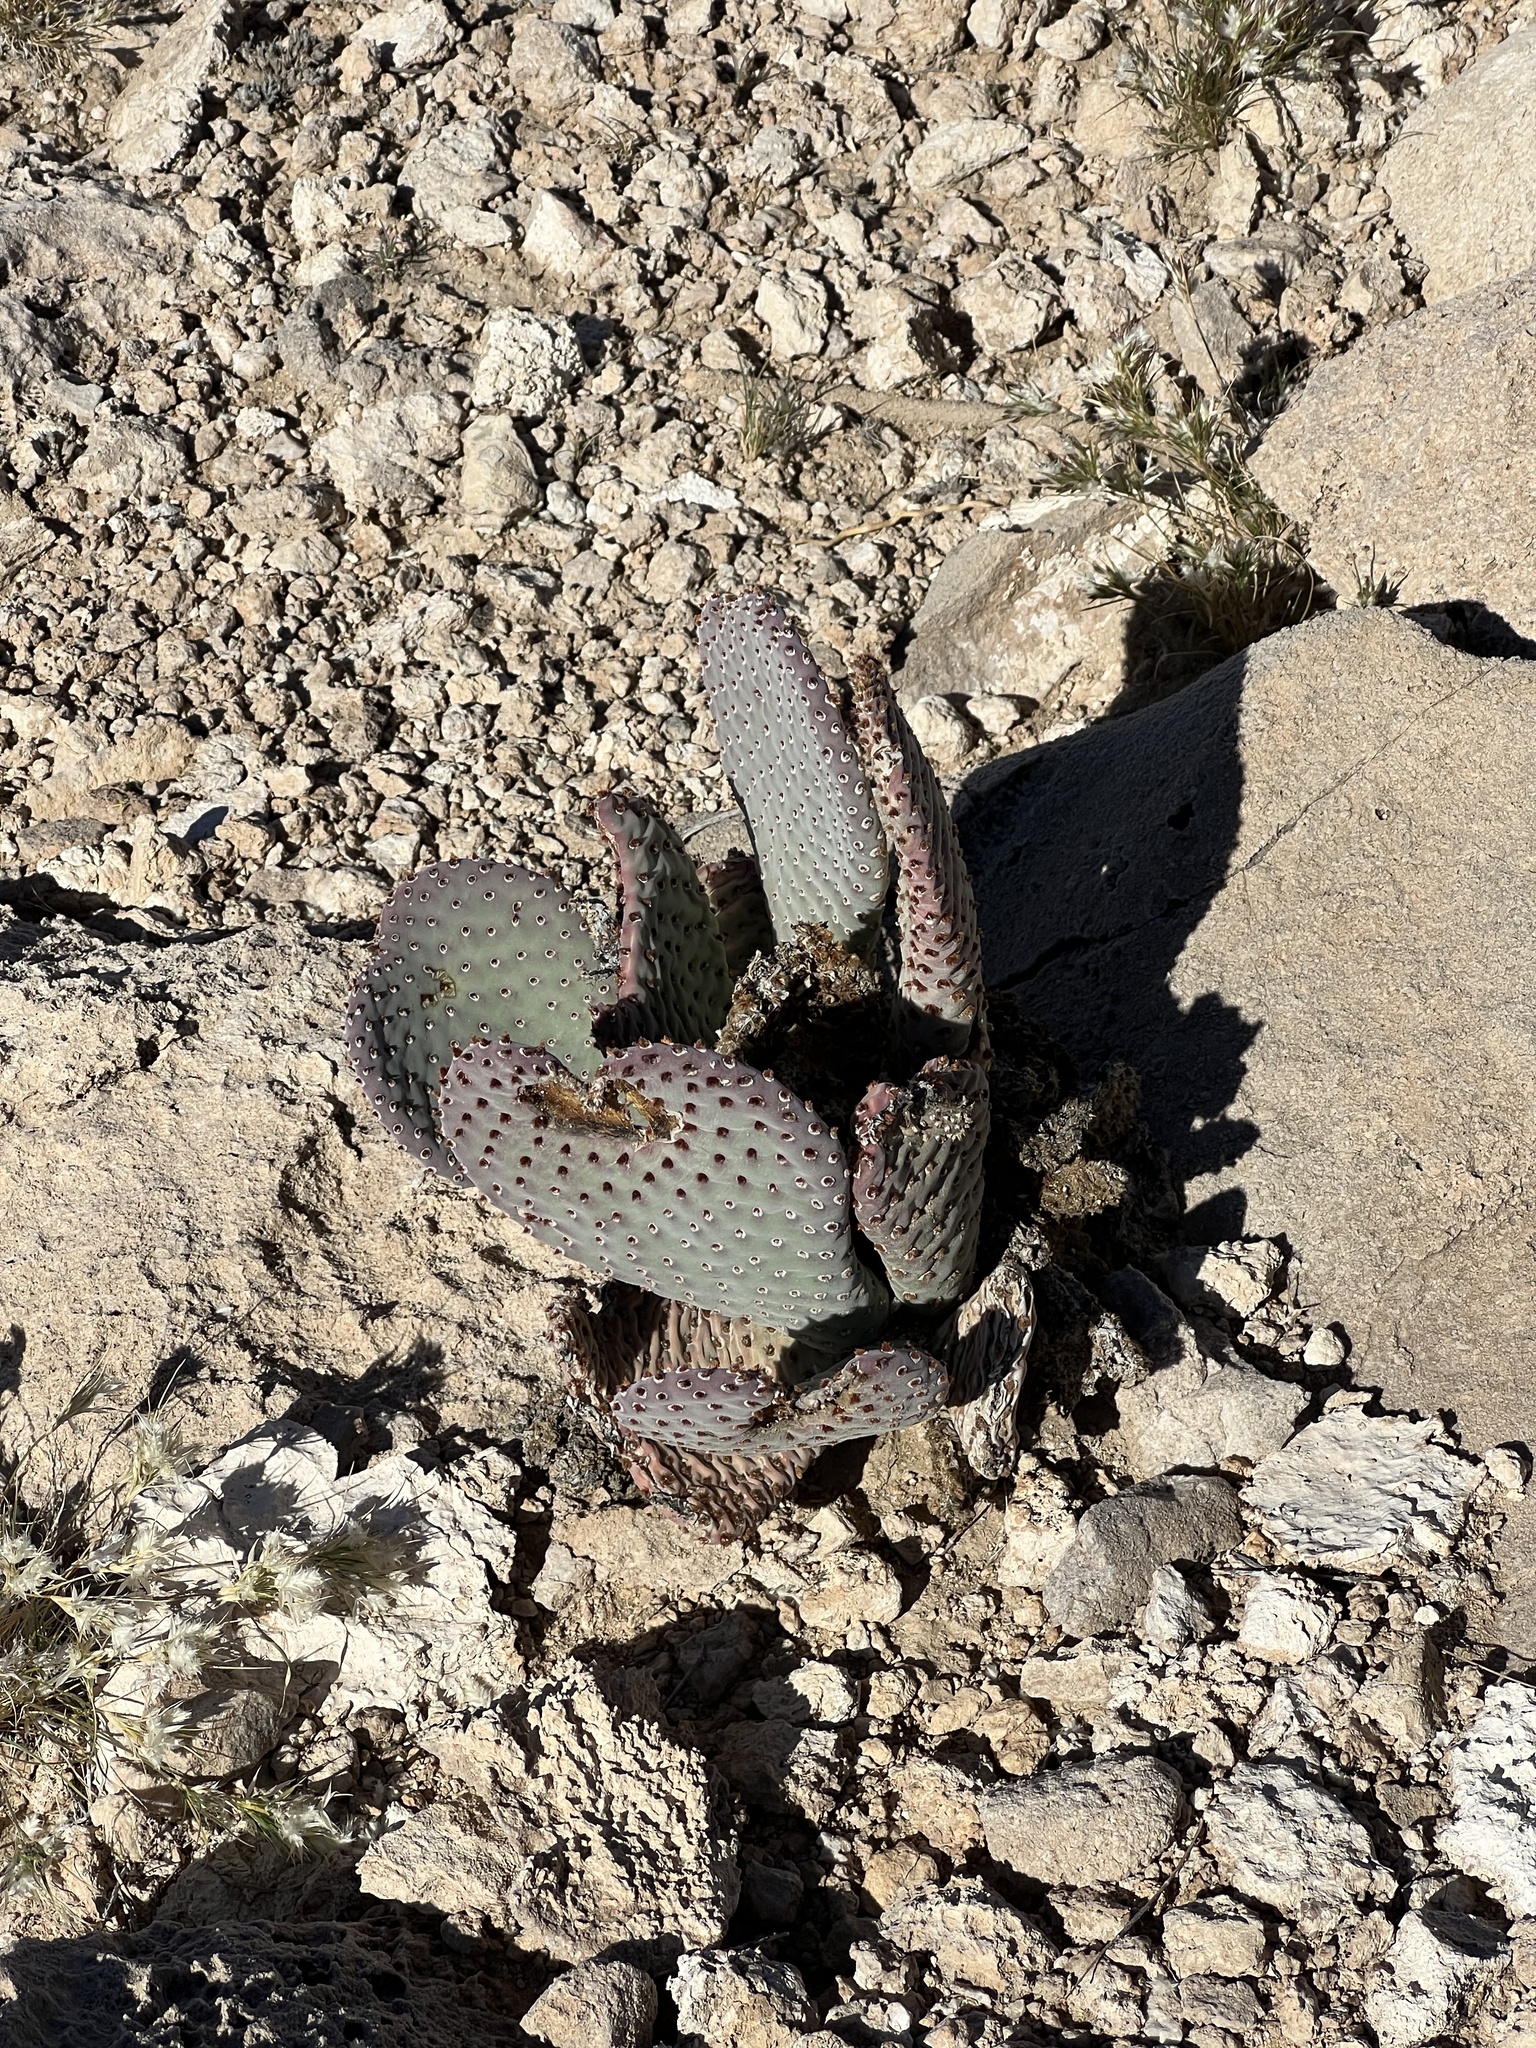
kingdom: Plantae
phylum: Tracheophyta
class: Magnoliopsida
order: Caryophyllales
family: Cactaceae
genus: Opuntia
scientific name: Opuntia basilaris
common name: Beavertail prickly-pear
